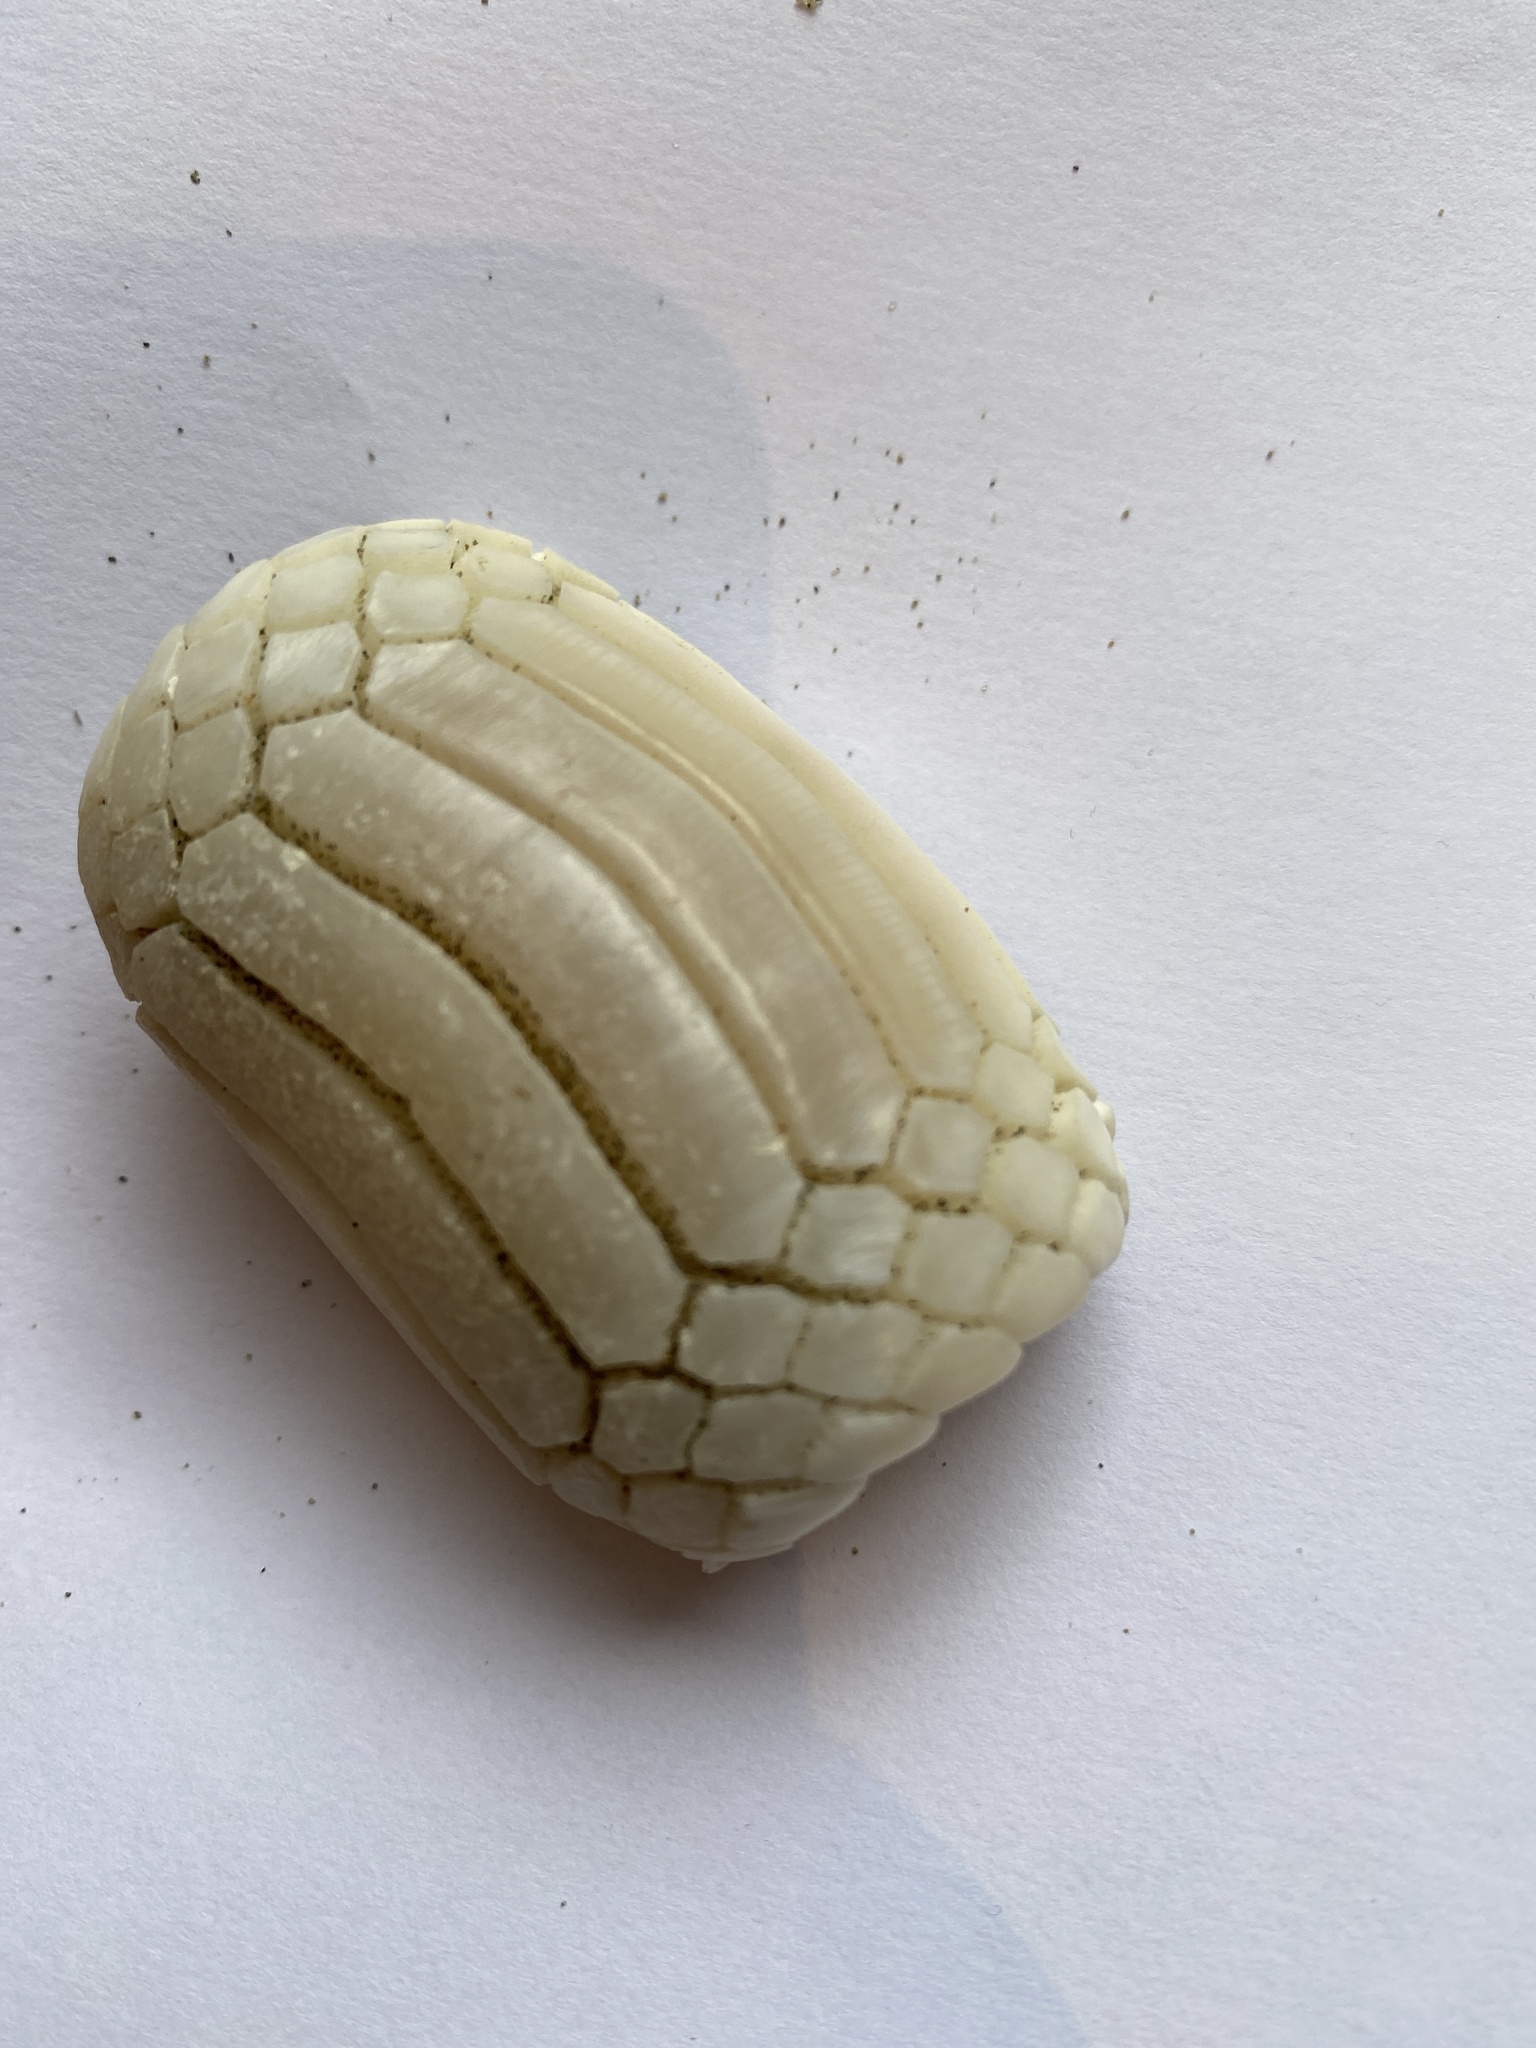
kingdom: Animalia
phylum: Chordata
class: Elasmobranchii
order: Myliobatiformes
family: Myliobatidae
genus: Myliobatis
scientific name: Myliobatis tenuicaudatus
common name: Eagle ray
